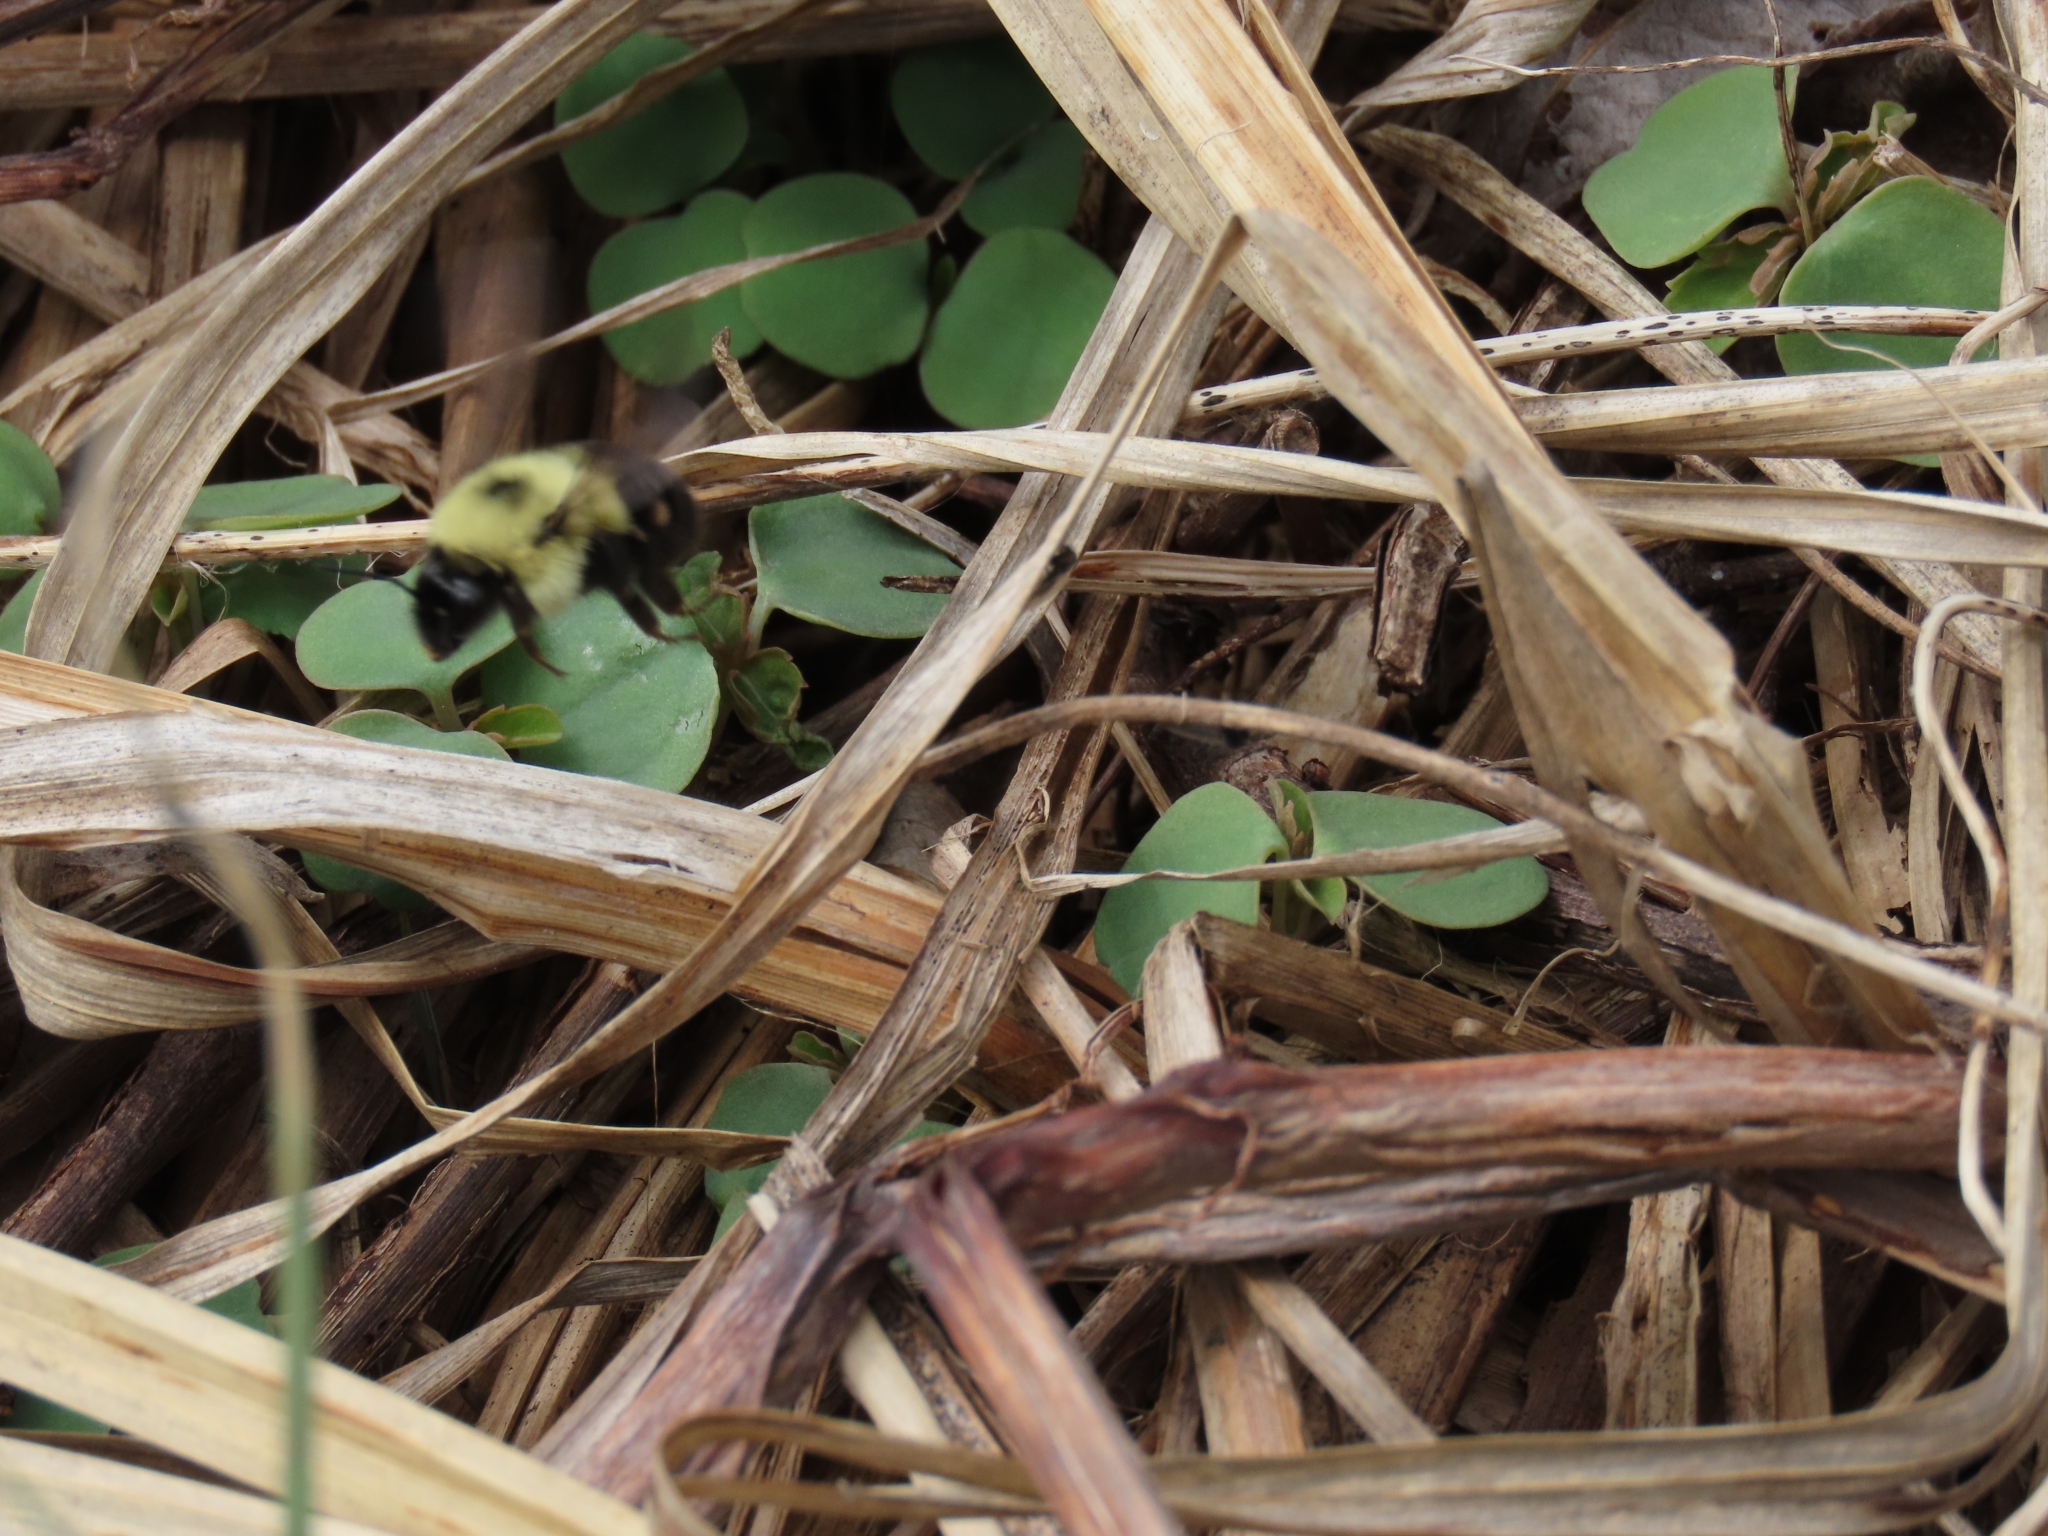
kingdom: Animalia
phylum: Arthropoda
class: Insecta
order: Hymenoptera
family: Apidae
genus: Bombus
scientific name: Bombus bimaculatus
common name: Two-spotted bumble bee
